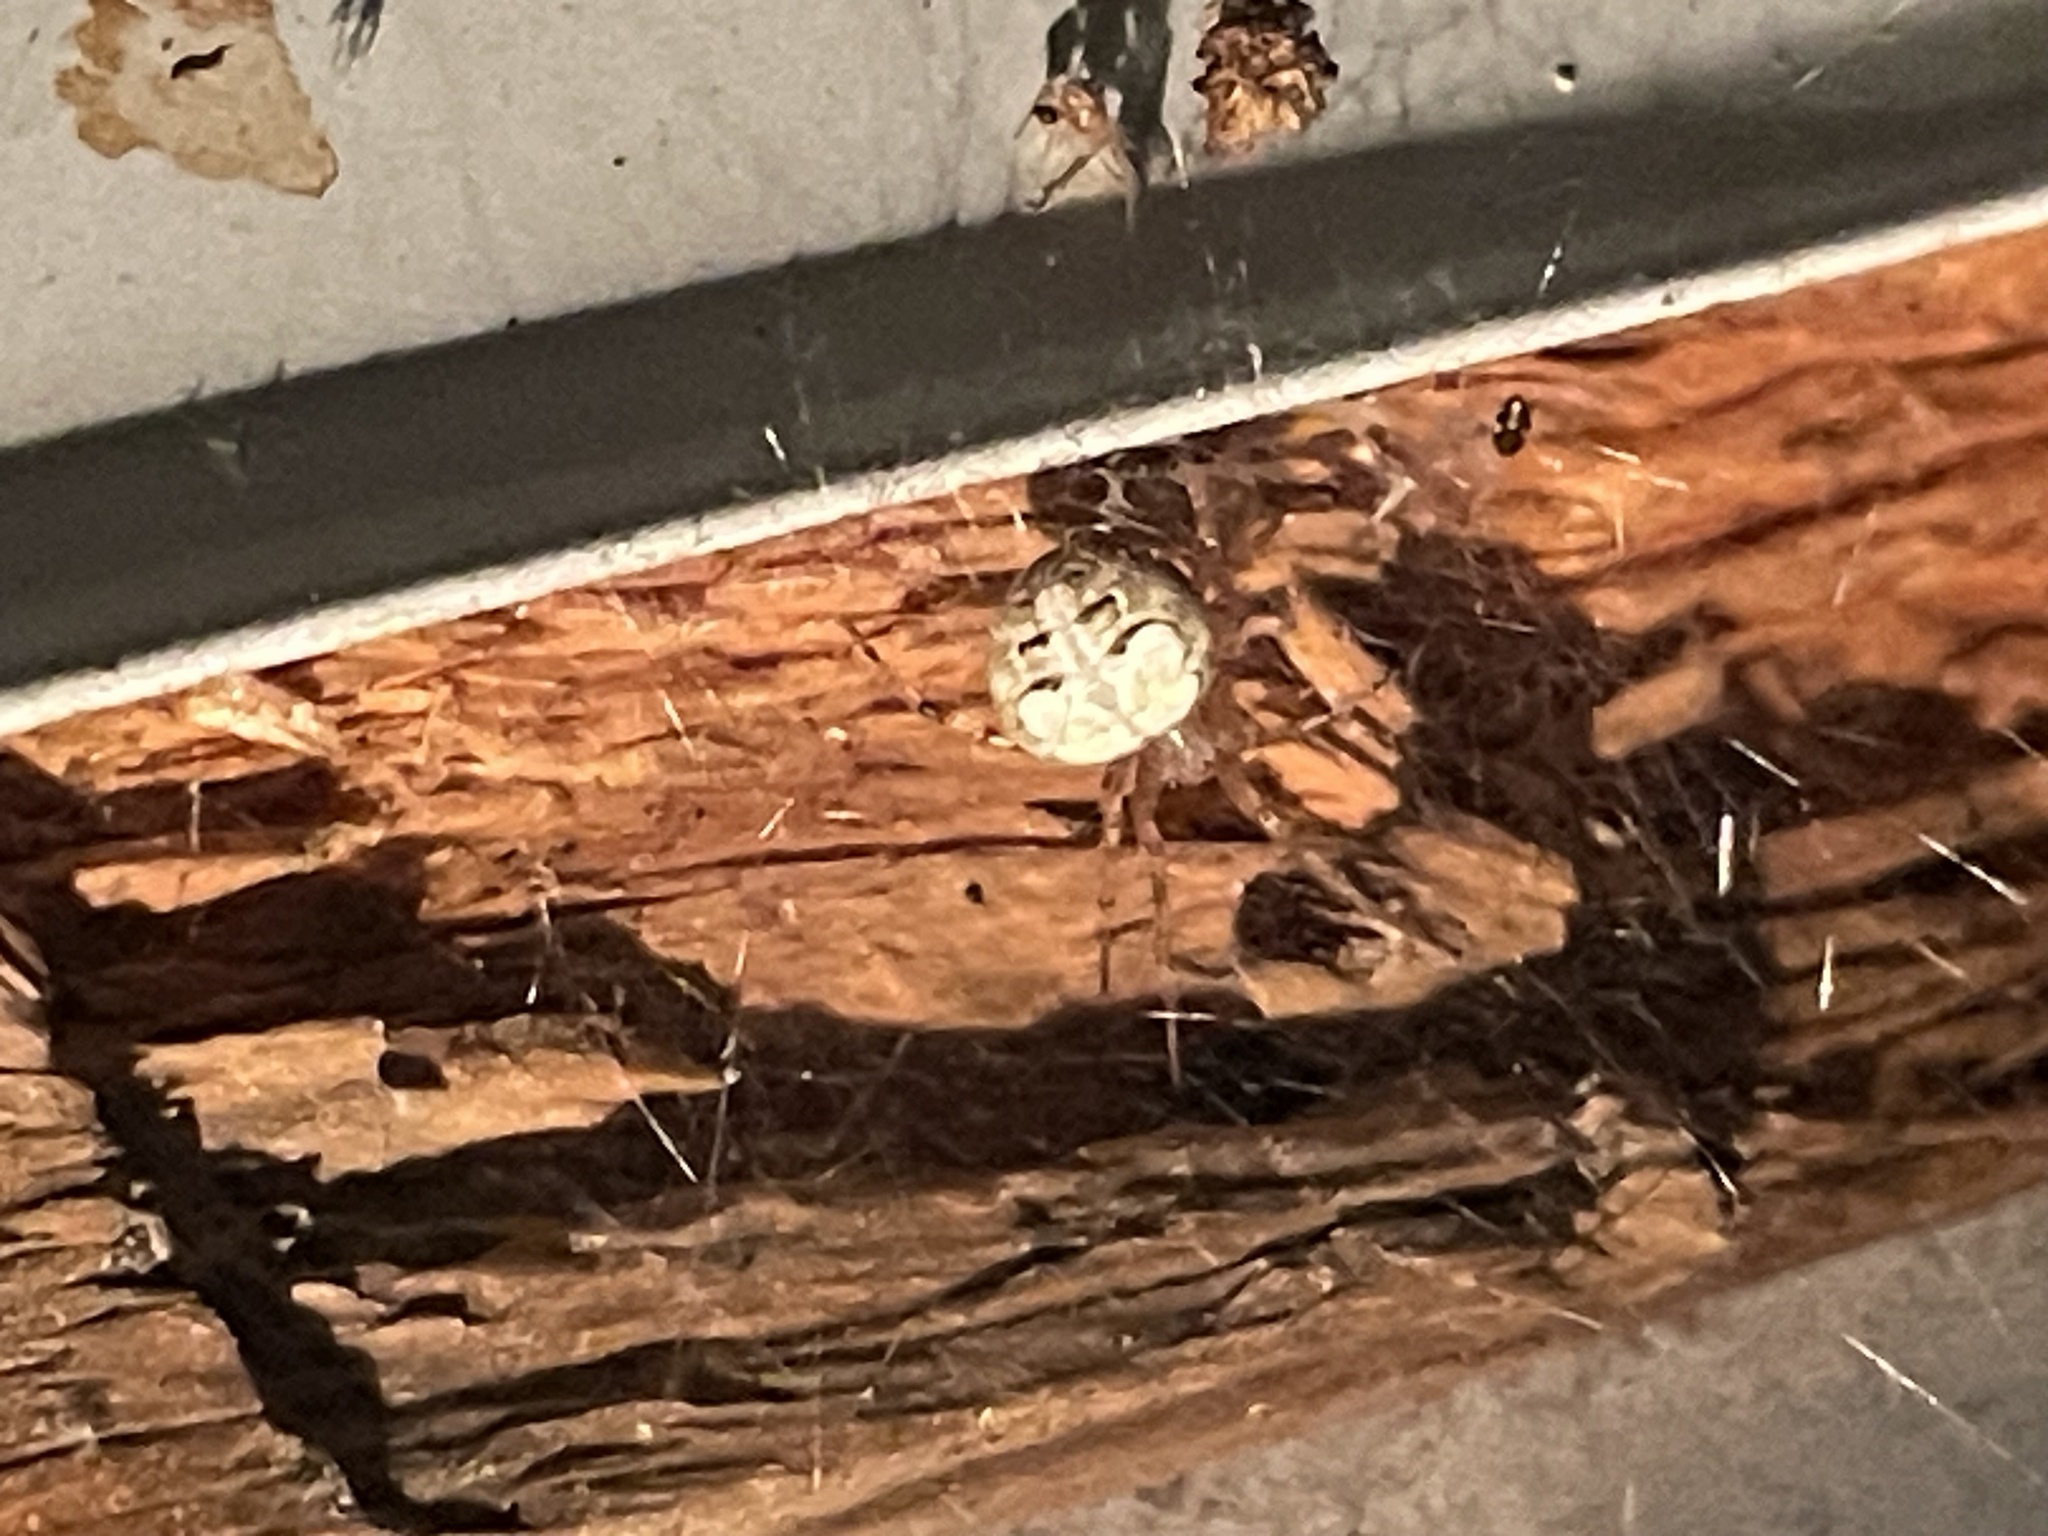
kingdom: Animalia
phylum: Arthropoda
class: Arachnida
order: Araneae
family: Araneidae
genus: Araneus
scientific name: Araneus pegnia
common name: Orb weavers
